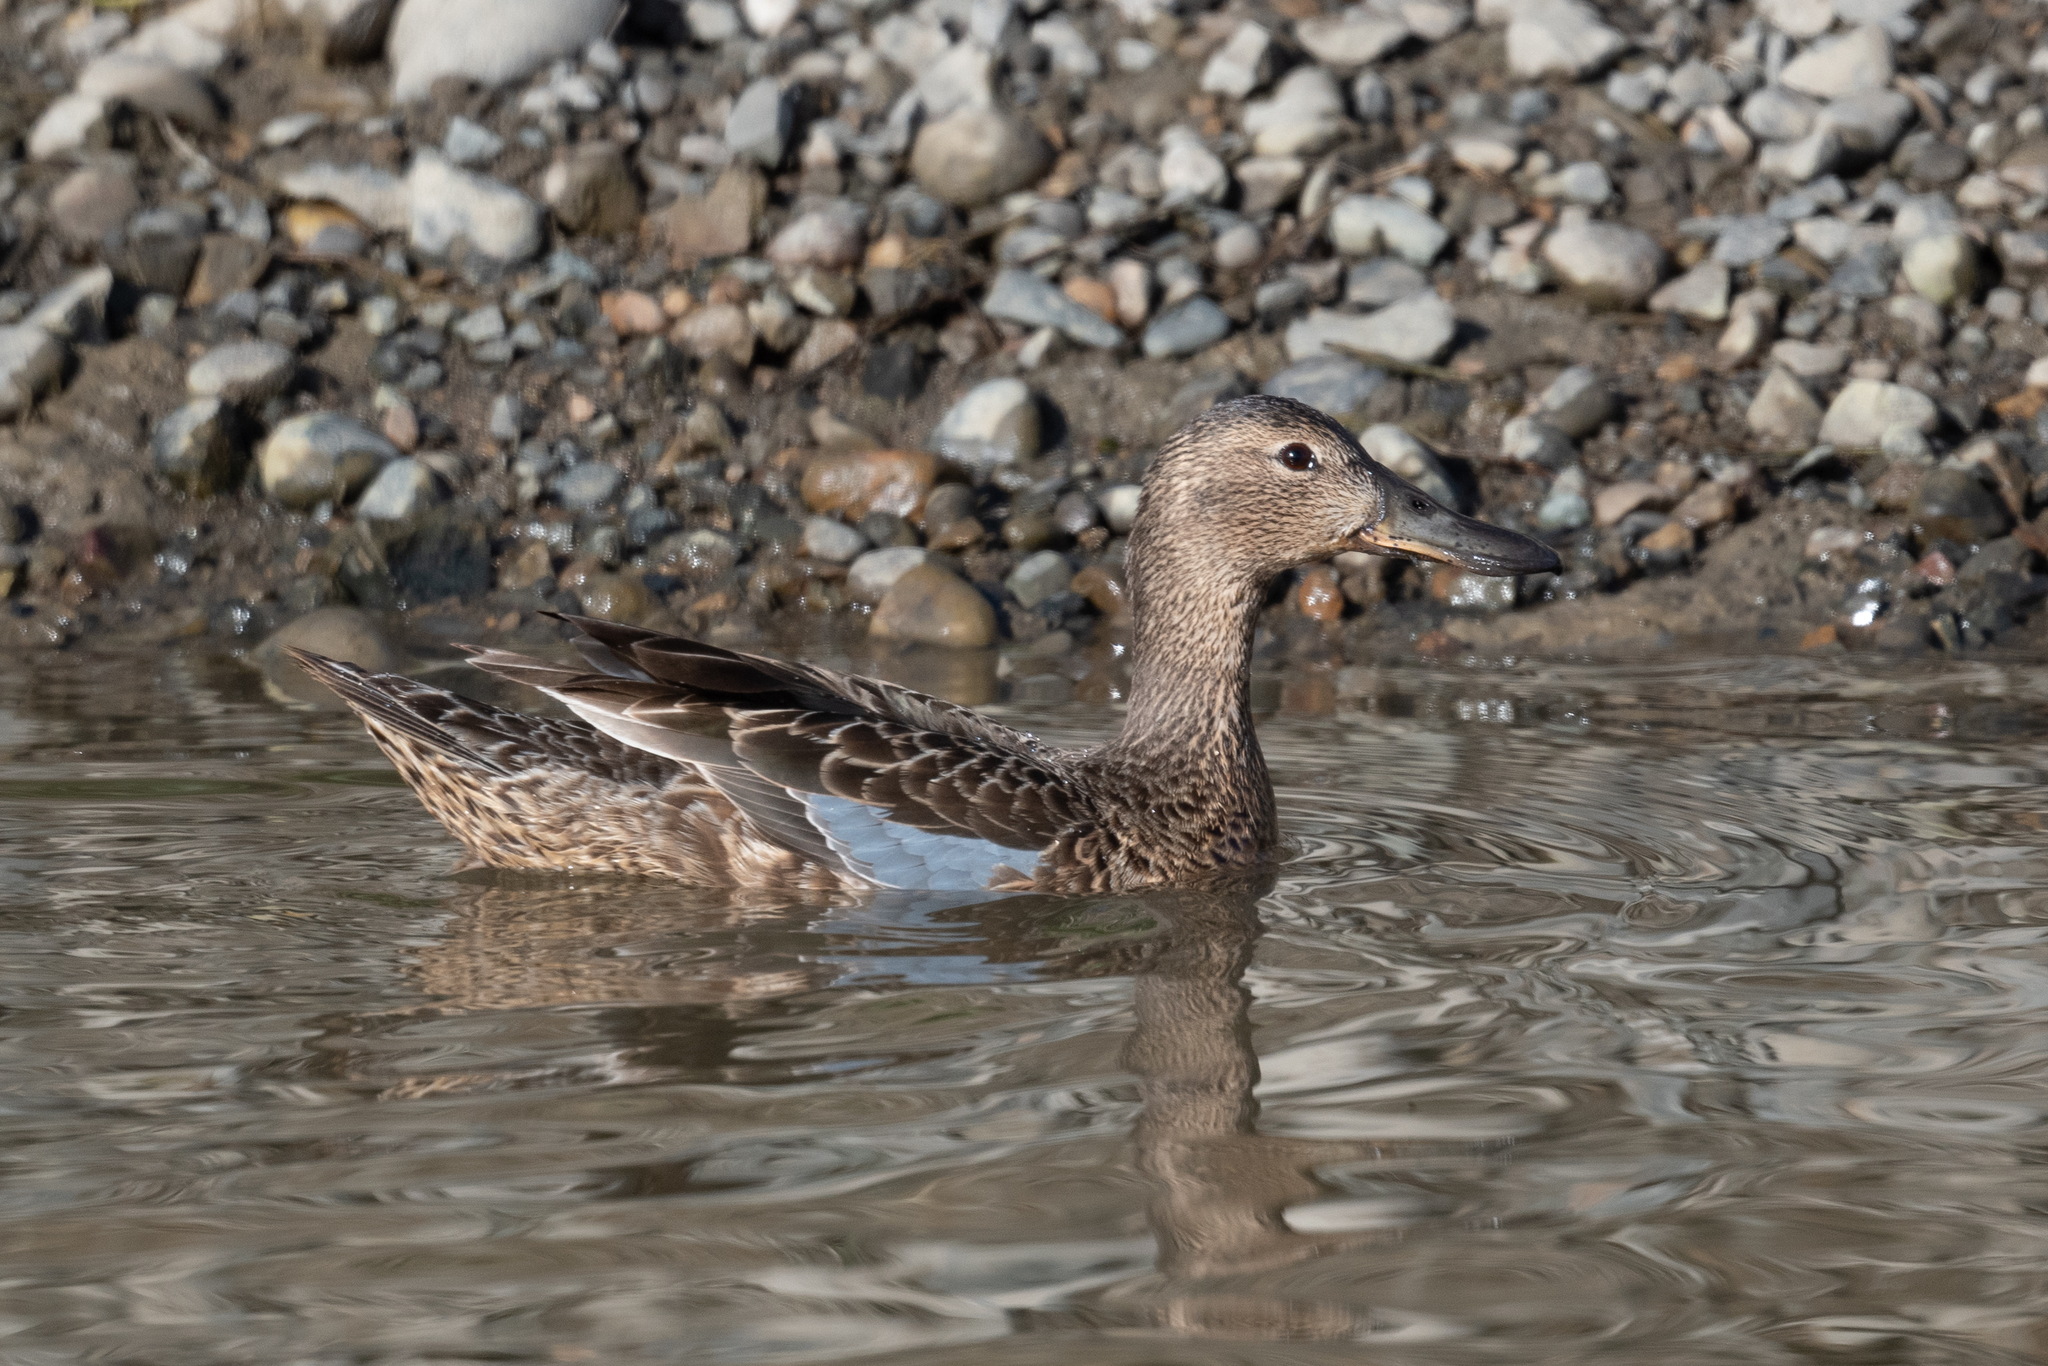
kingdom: Animalia
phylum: Chordata
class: Aves
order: Anseriformes
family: Anatidae
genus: Spatula
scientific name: Spatula cyanoptera
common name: Cinnamon teal
